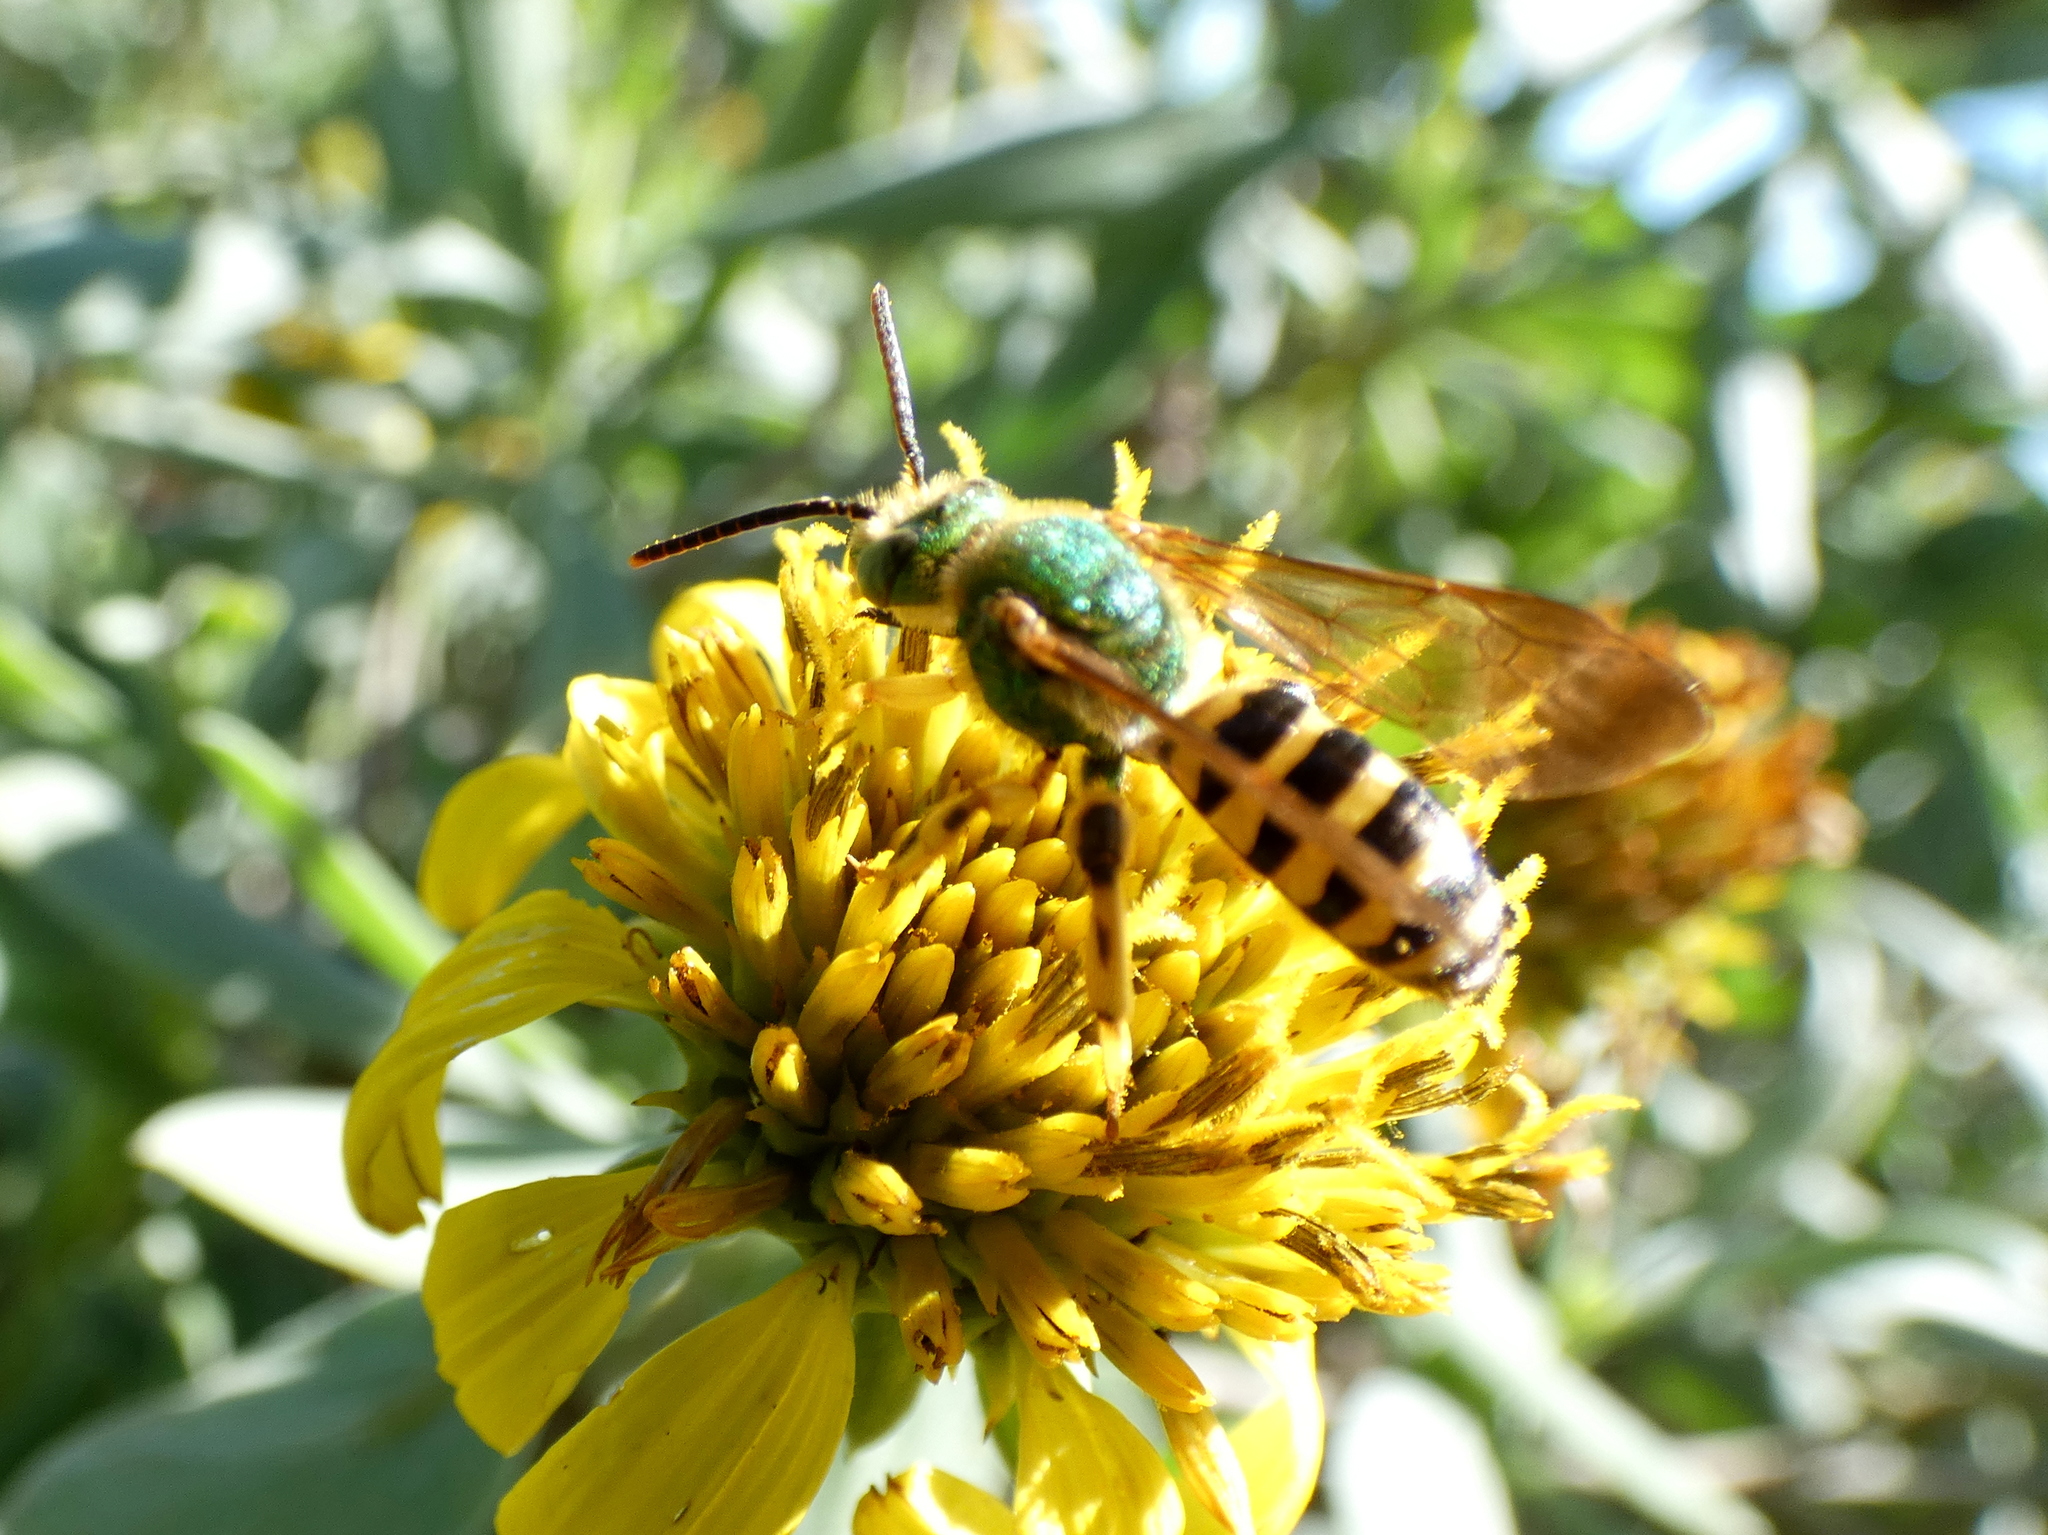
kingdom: Animalia
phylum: Arthropoda
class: Insecta
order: Hymenoptera
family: Halictidae
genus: Agapostemon
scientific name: Agapostemon splendens
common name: Brown-winged striped sweat bee
